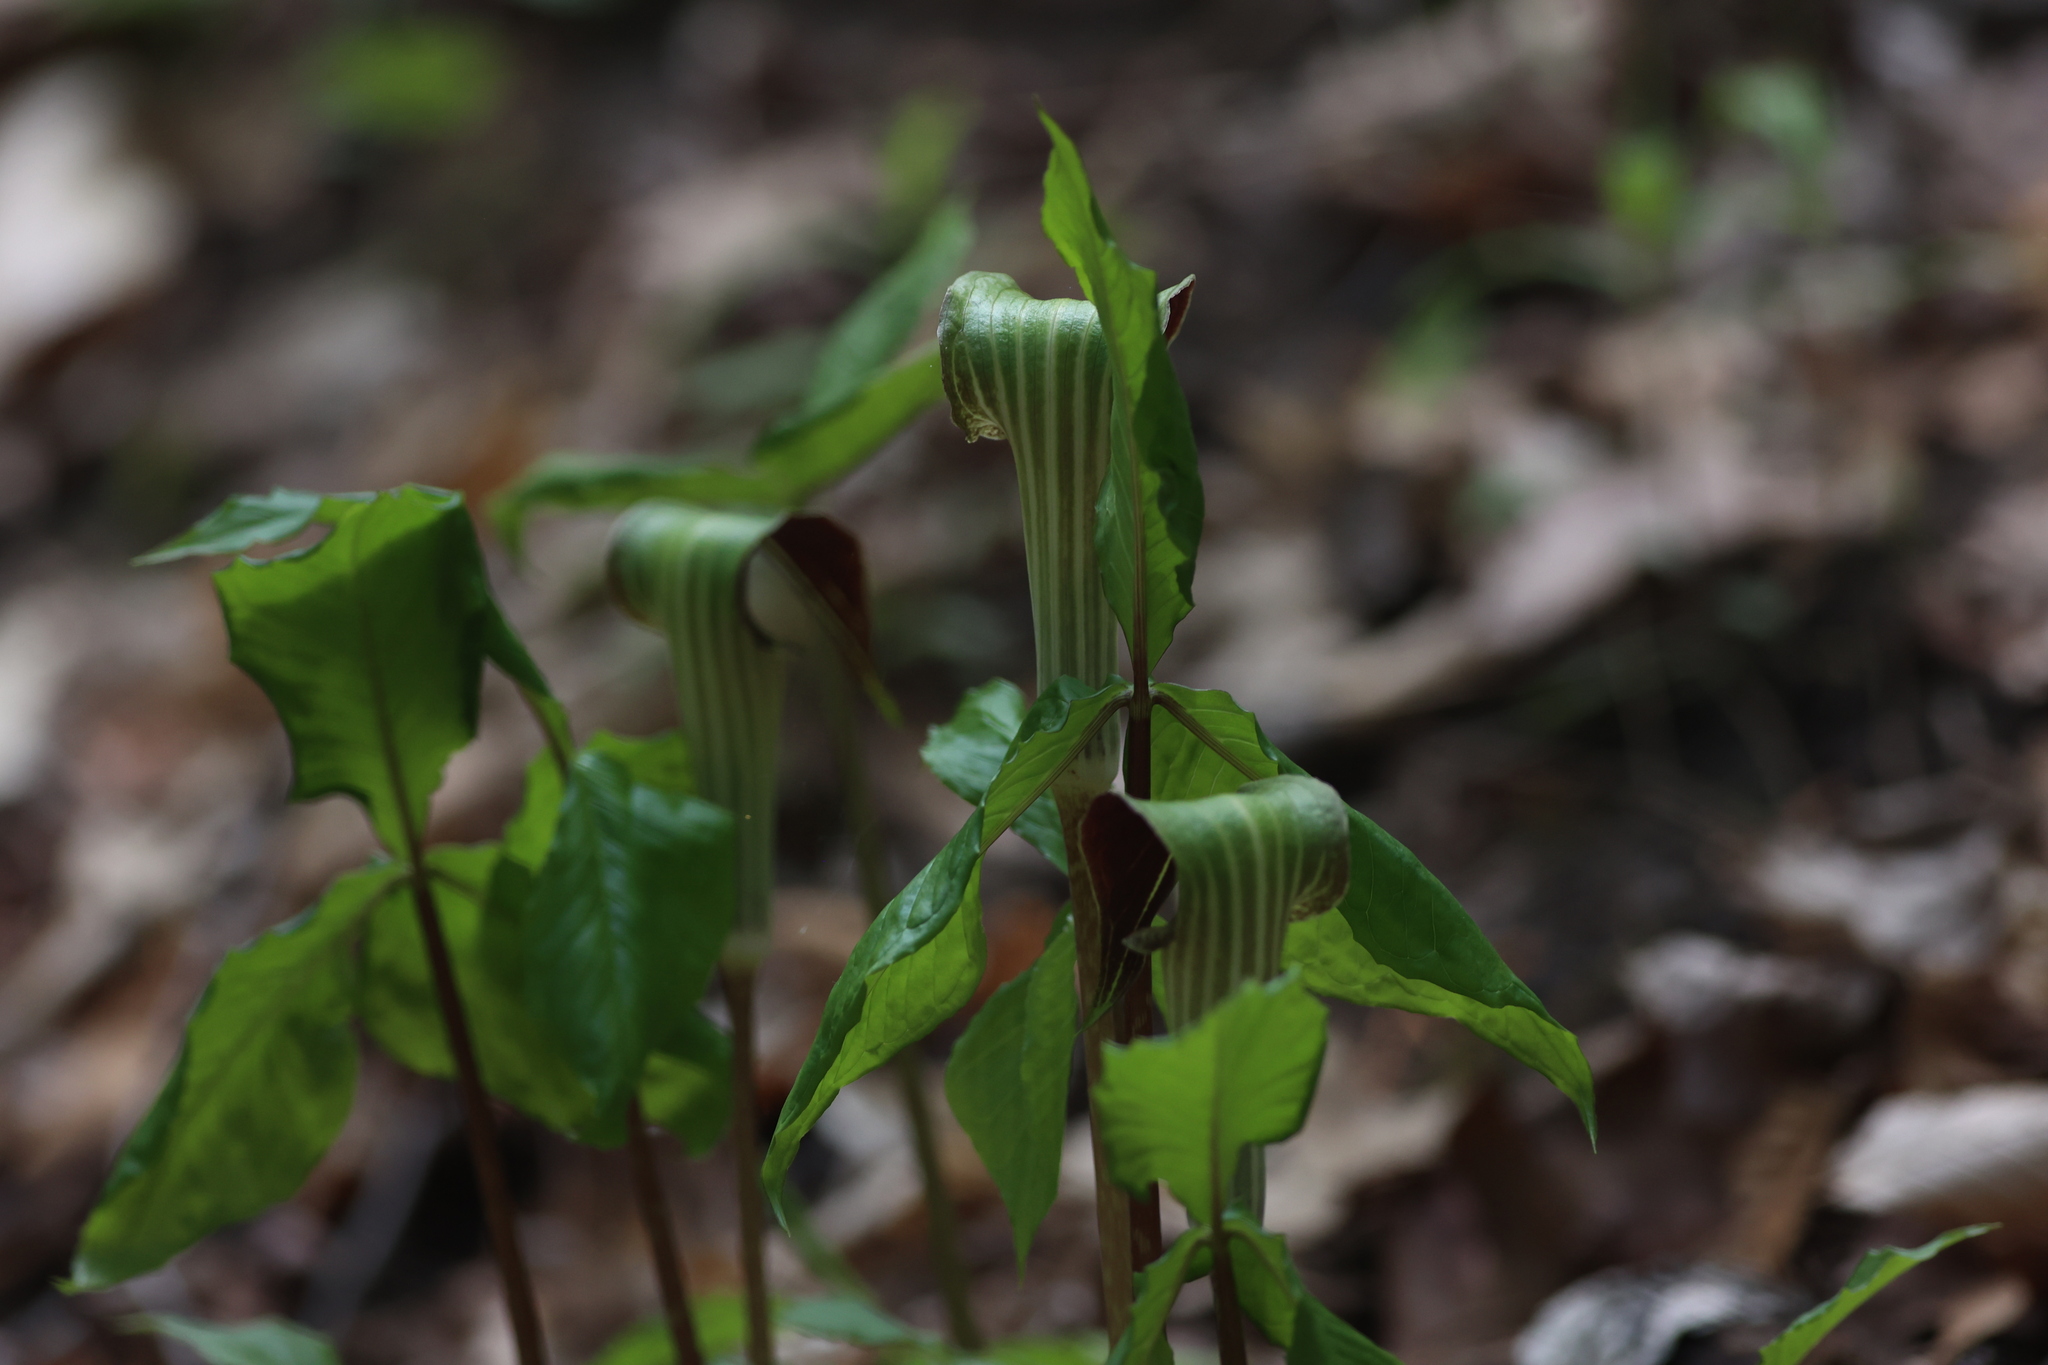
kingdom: Plantae
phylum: Tracheophyta
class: Liliopsida
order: Alismatales
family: Araceae
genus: Arisaema
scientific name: Arisaema triphyllum
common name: Jack-in-the-pulpit
